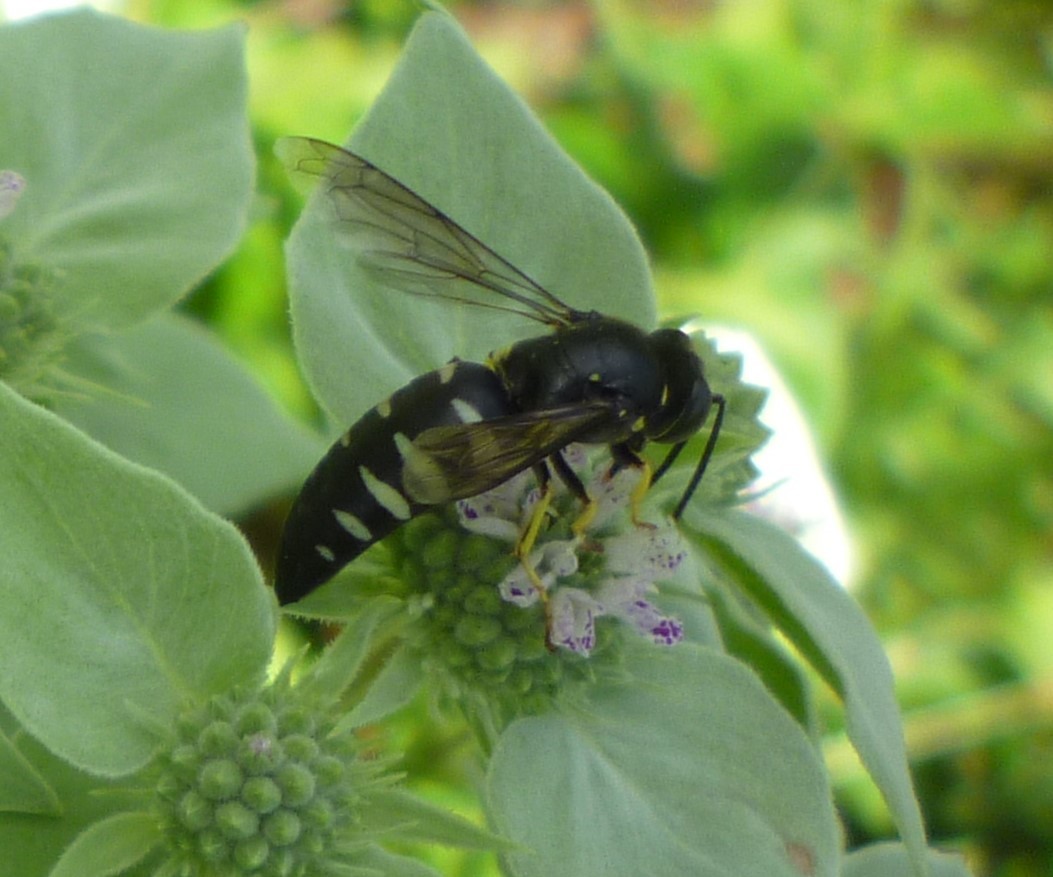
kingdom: Animalia
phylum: Arthropoda
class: Insecta
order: Hymenoptera
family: Crabronidae
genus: Bicyrtes
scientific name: Bicyrtes quadrifasciatus
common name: Four-banded stink bug hunter wasp
